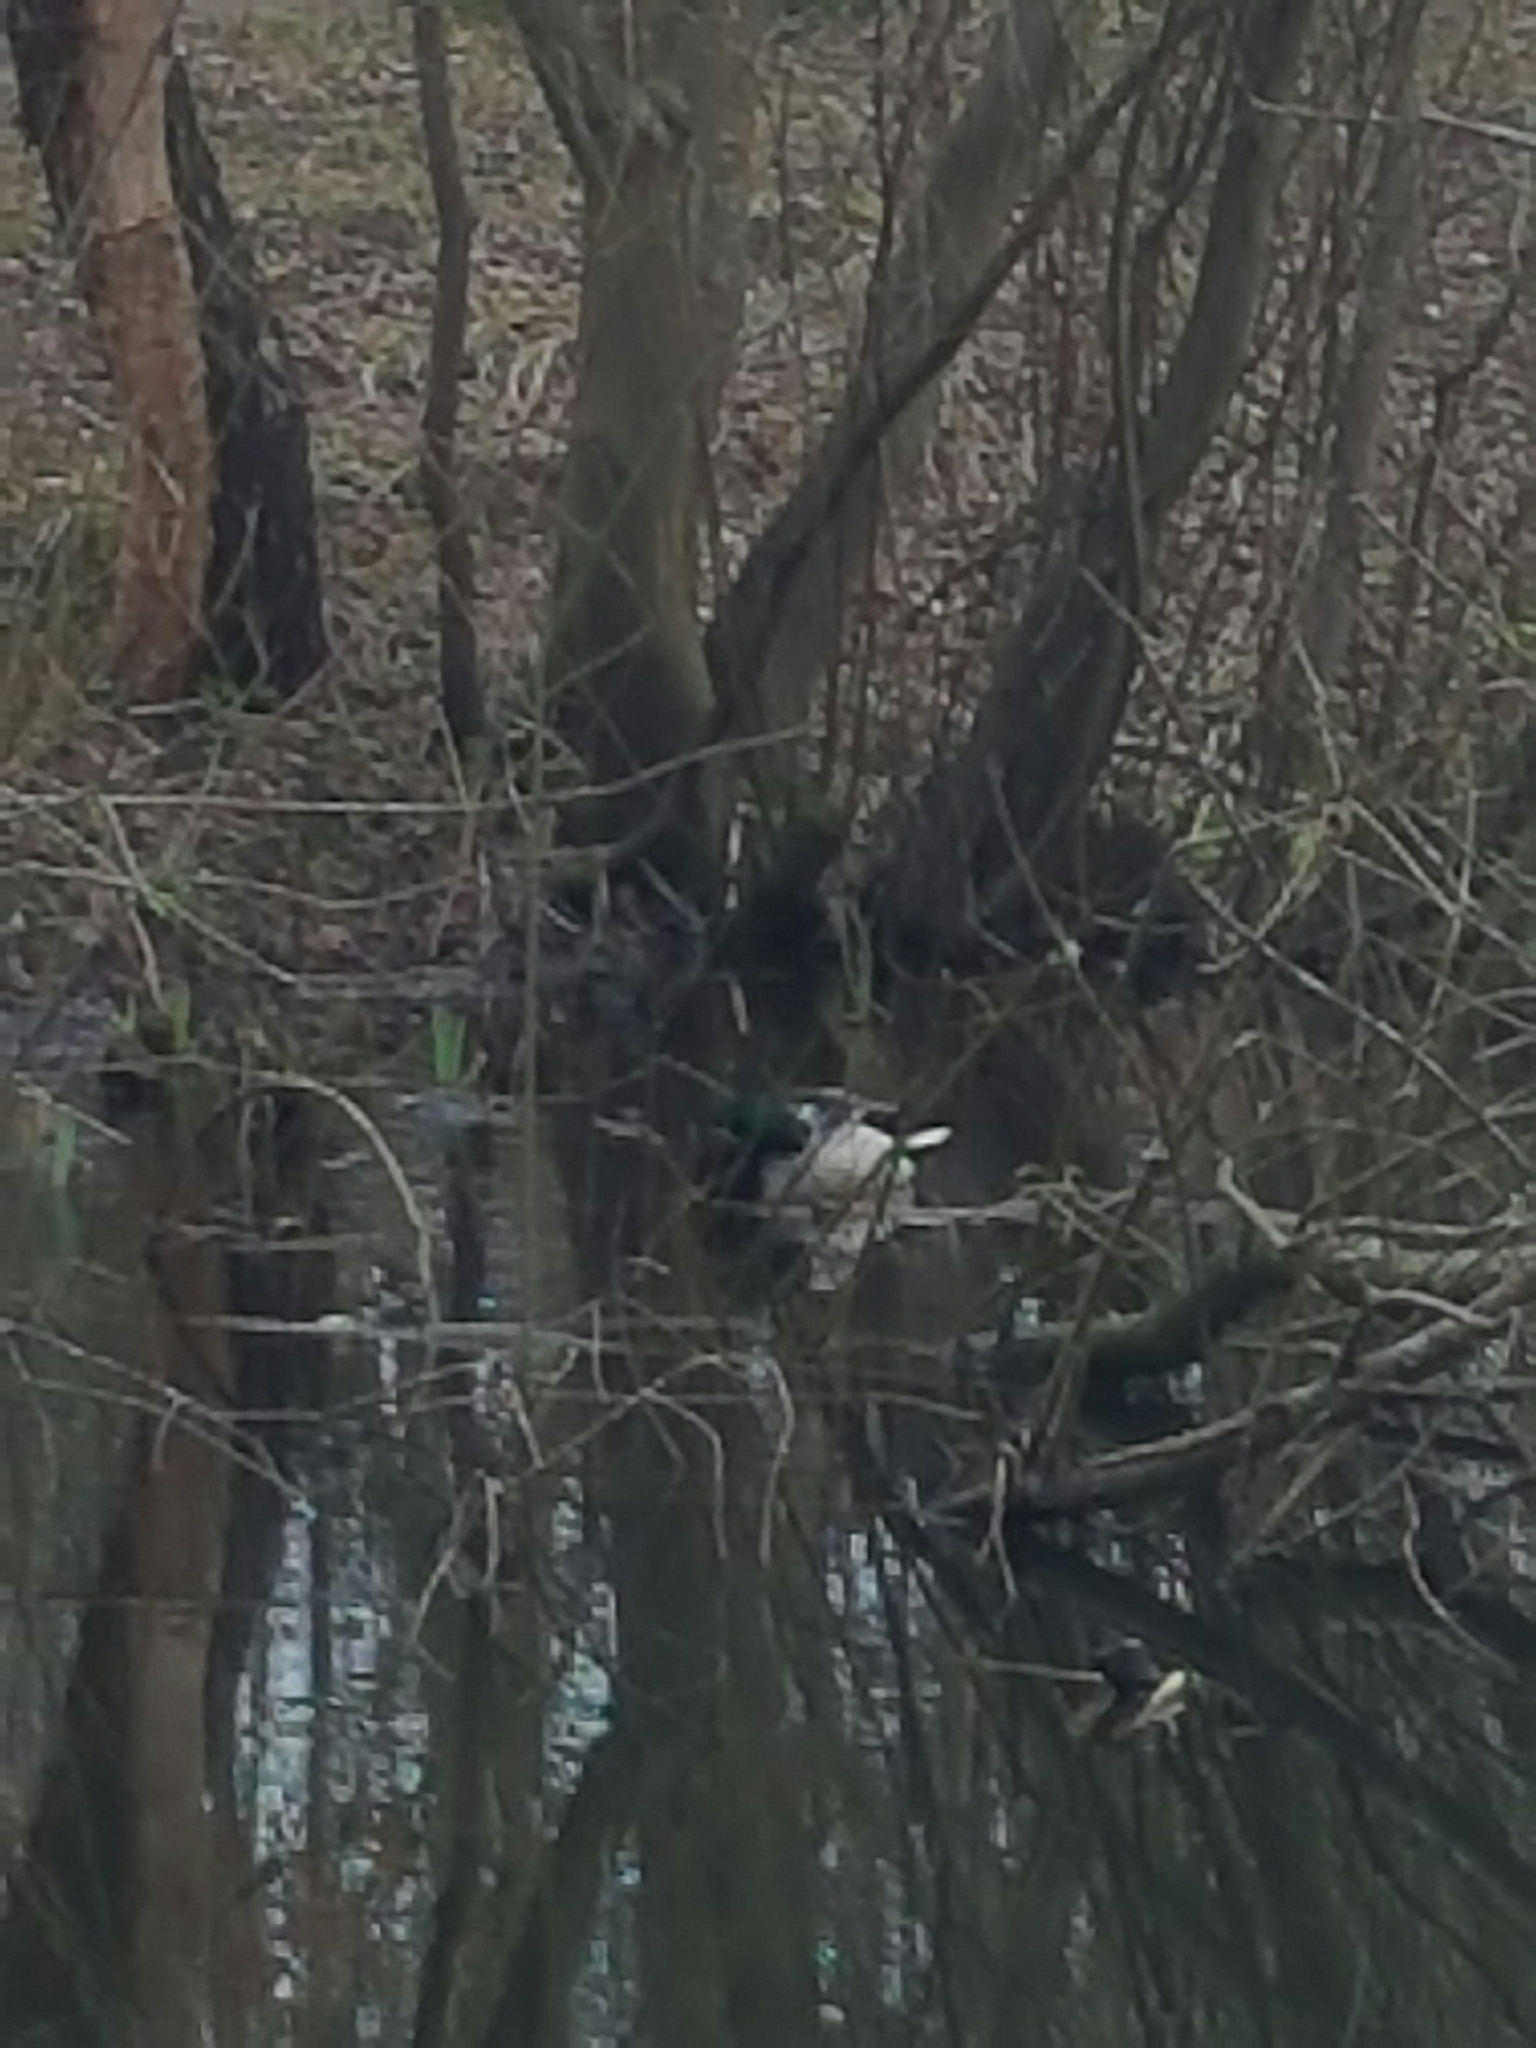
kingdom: Animalia
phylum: Chordata
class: Aves
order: Anseriformes
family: Anatidae
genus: Anas
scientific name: Anas platyrhynchos
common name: Mallard
